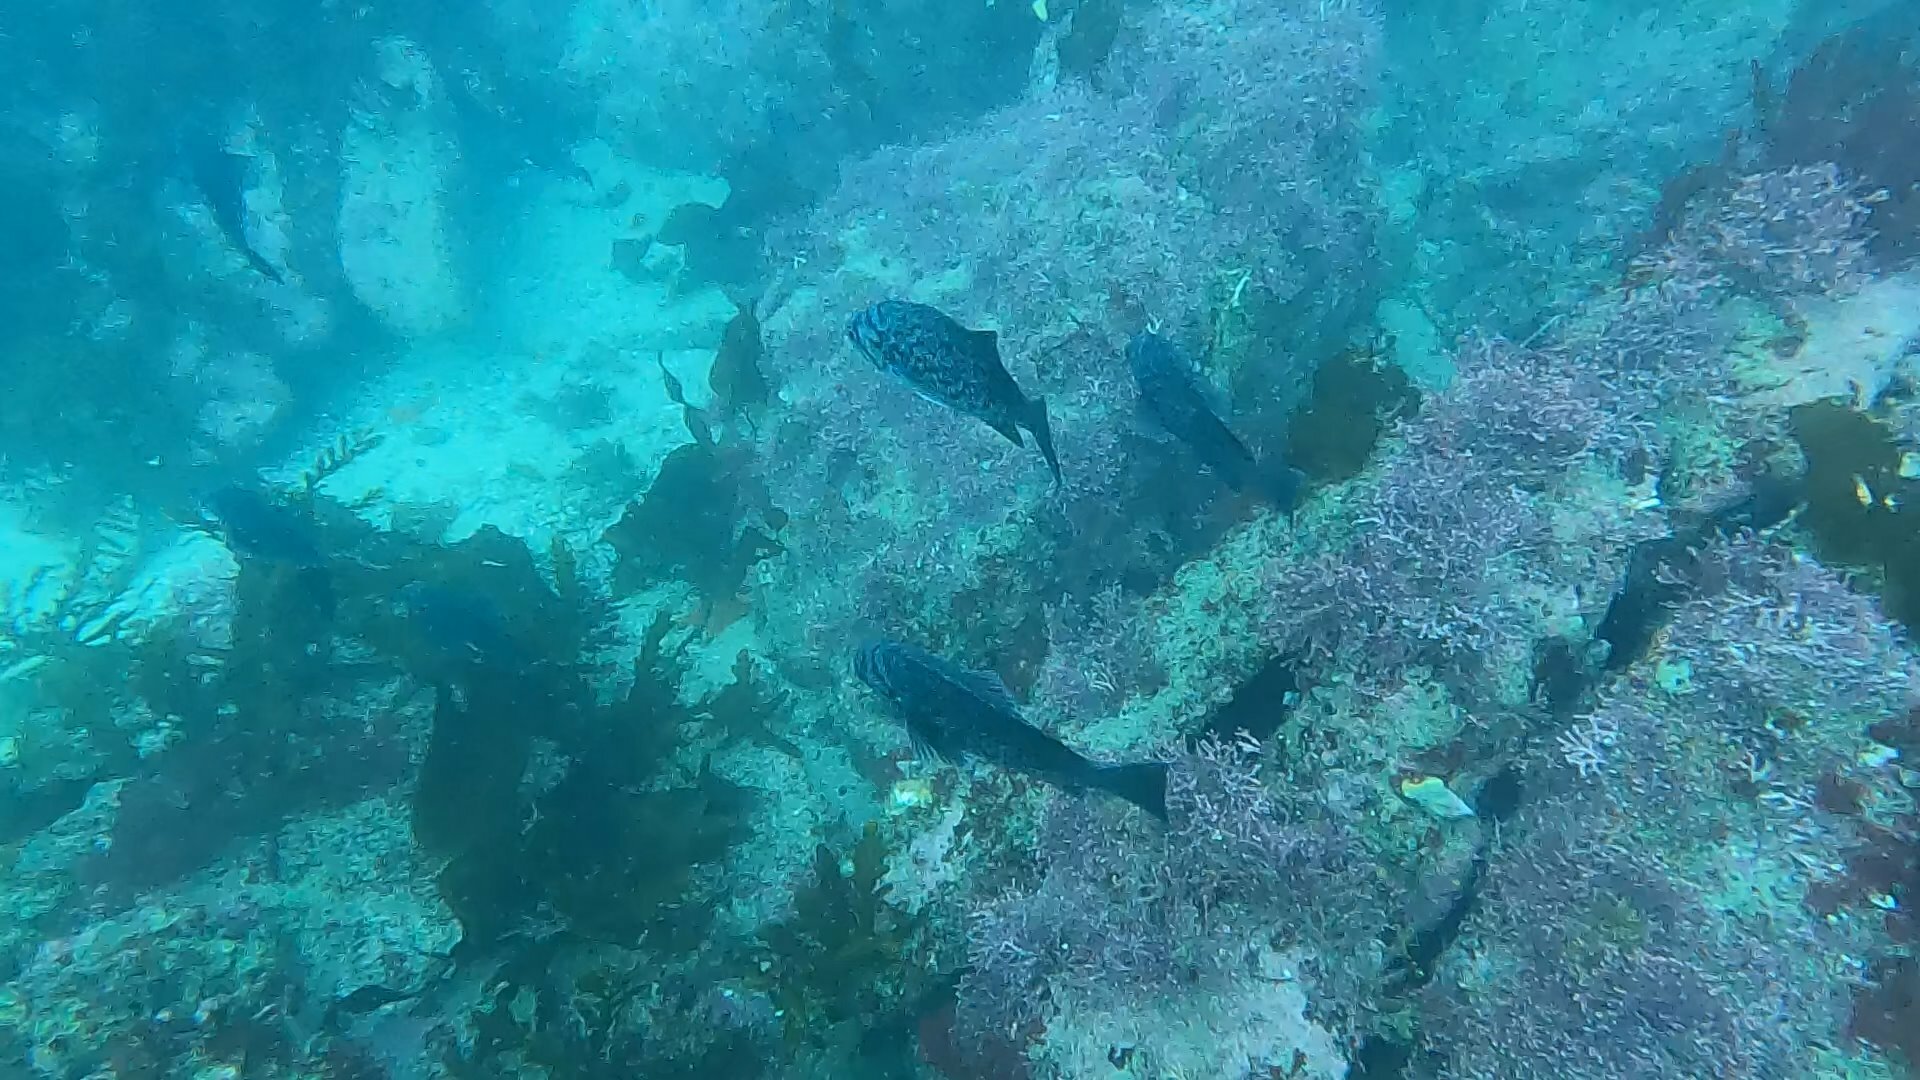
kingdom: Animalia
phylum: Chordata
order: Scorpaeniformes
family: Sebastidae
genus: Sebastes
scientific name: Sebastes mystinus
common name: Blue rockfish
